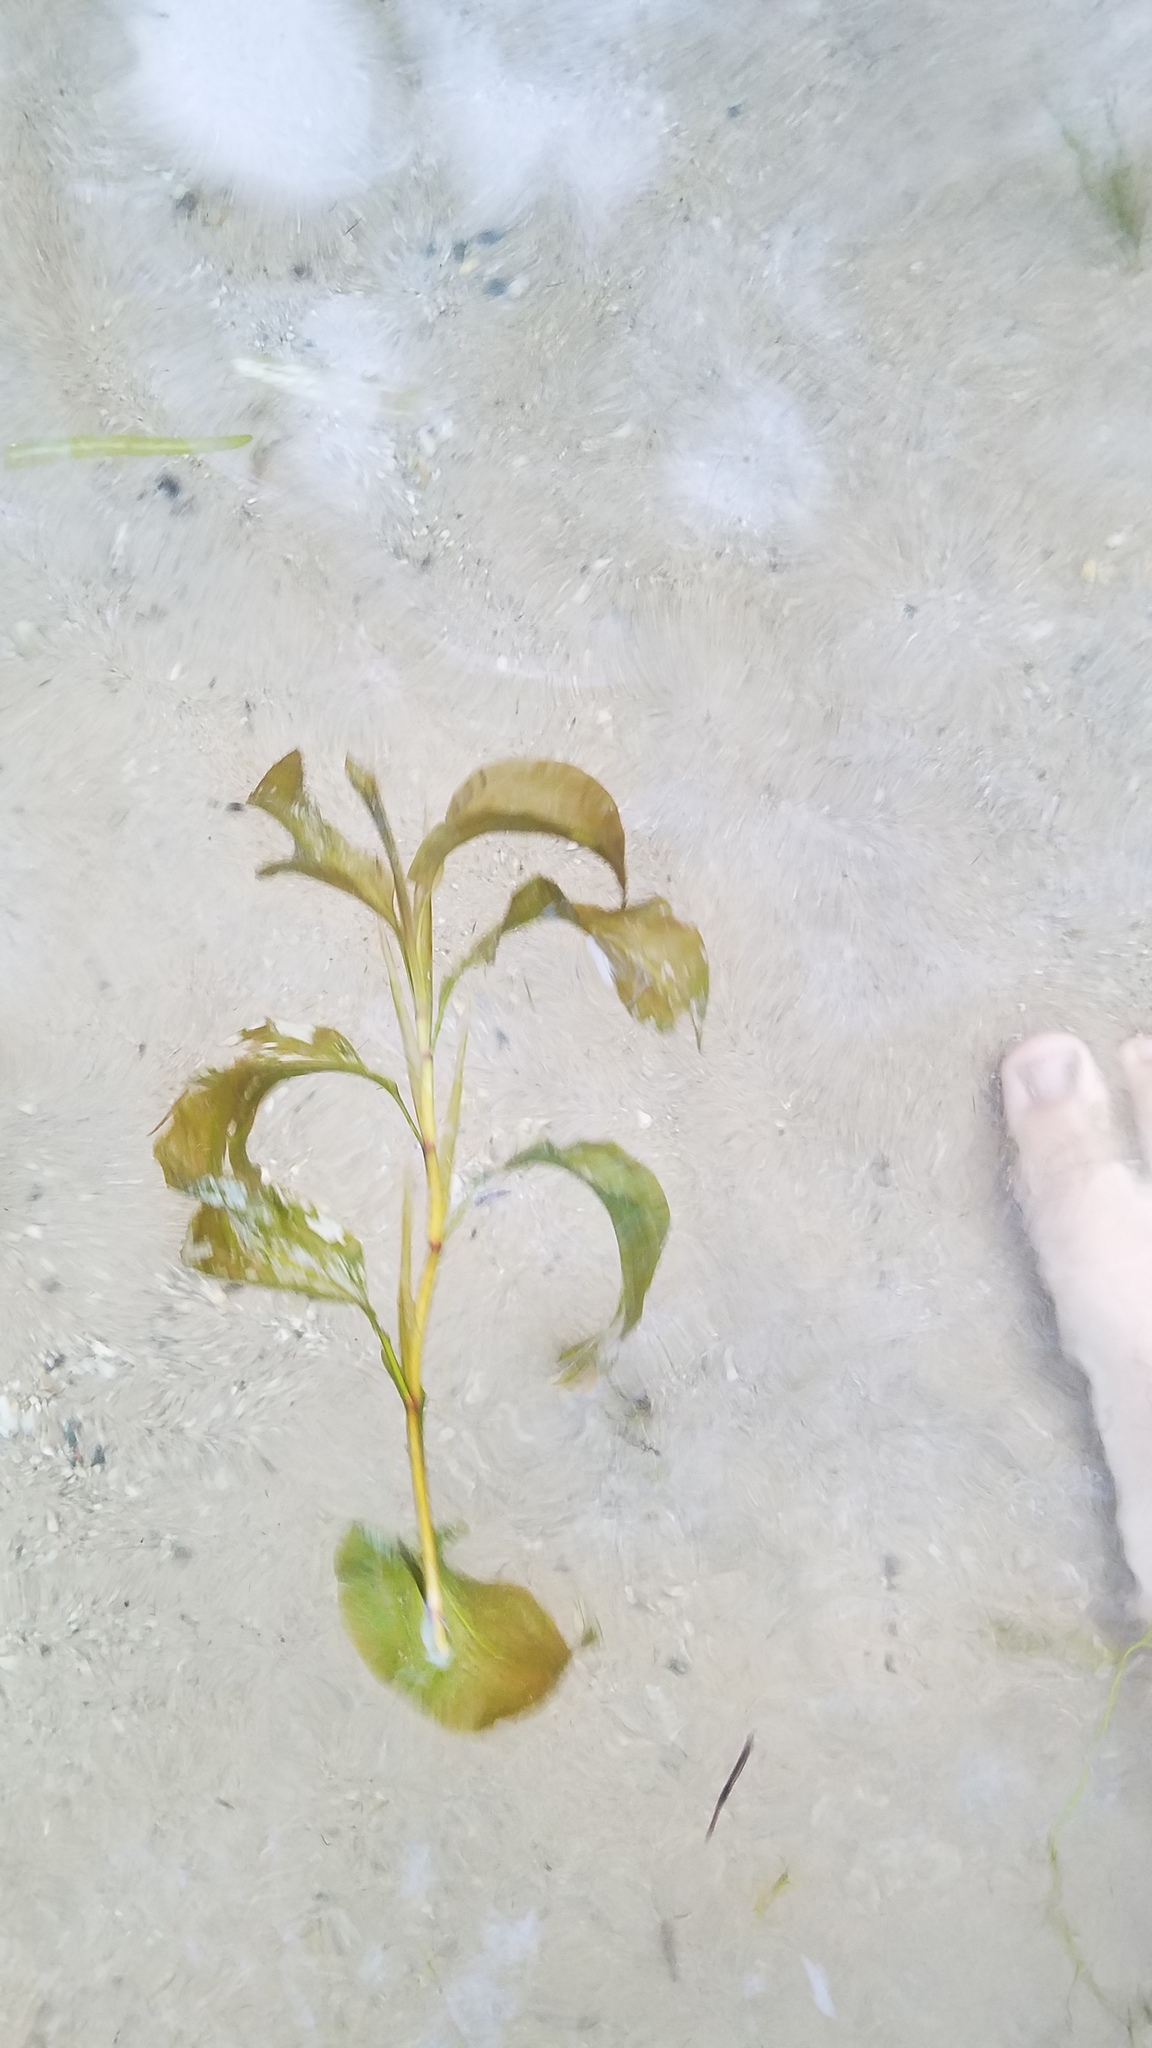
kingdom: Plantae
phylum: Tracheophyta
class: Liliopsida
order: Alismatales
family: Potamogetonaceae
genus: Potamogeton
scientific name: Potamogeton amplifolius
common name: Broad-leaved pondweed
